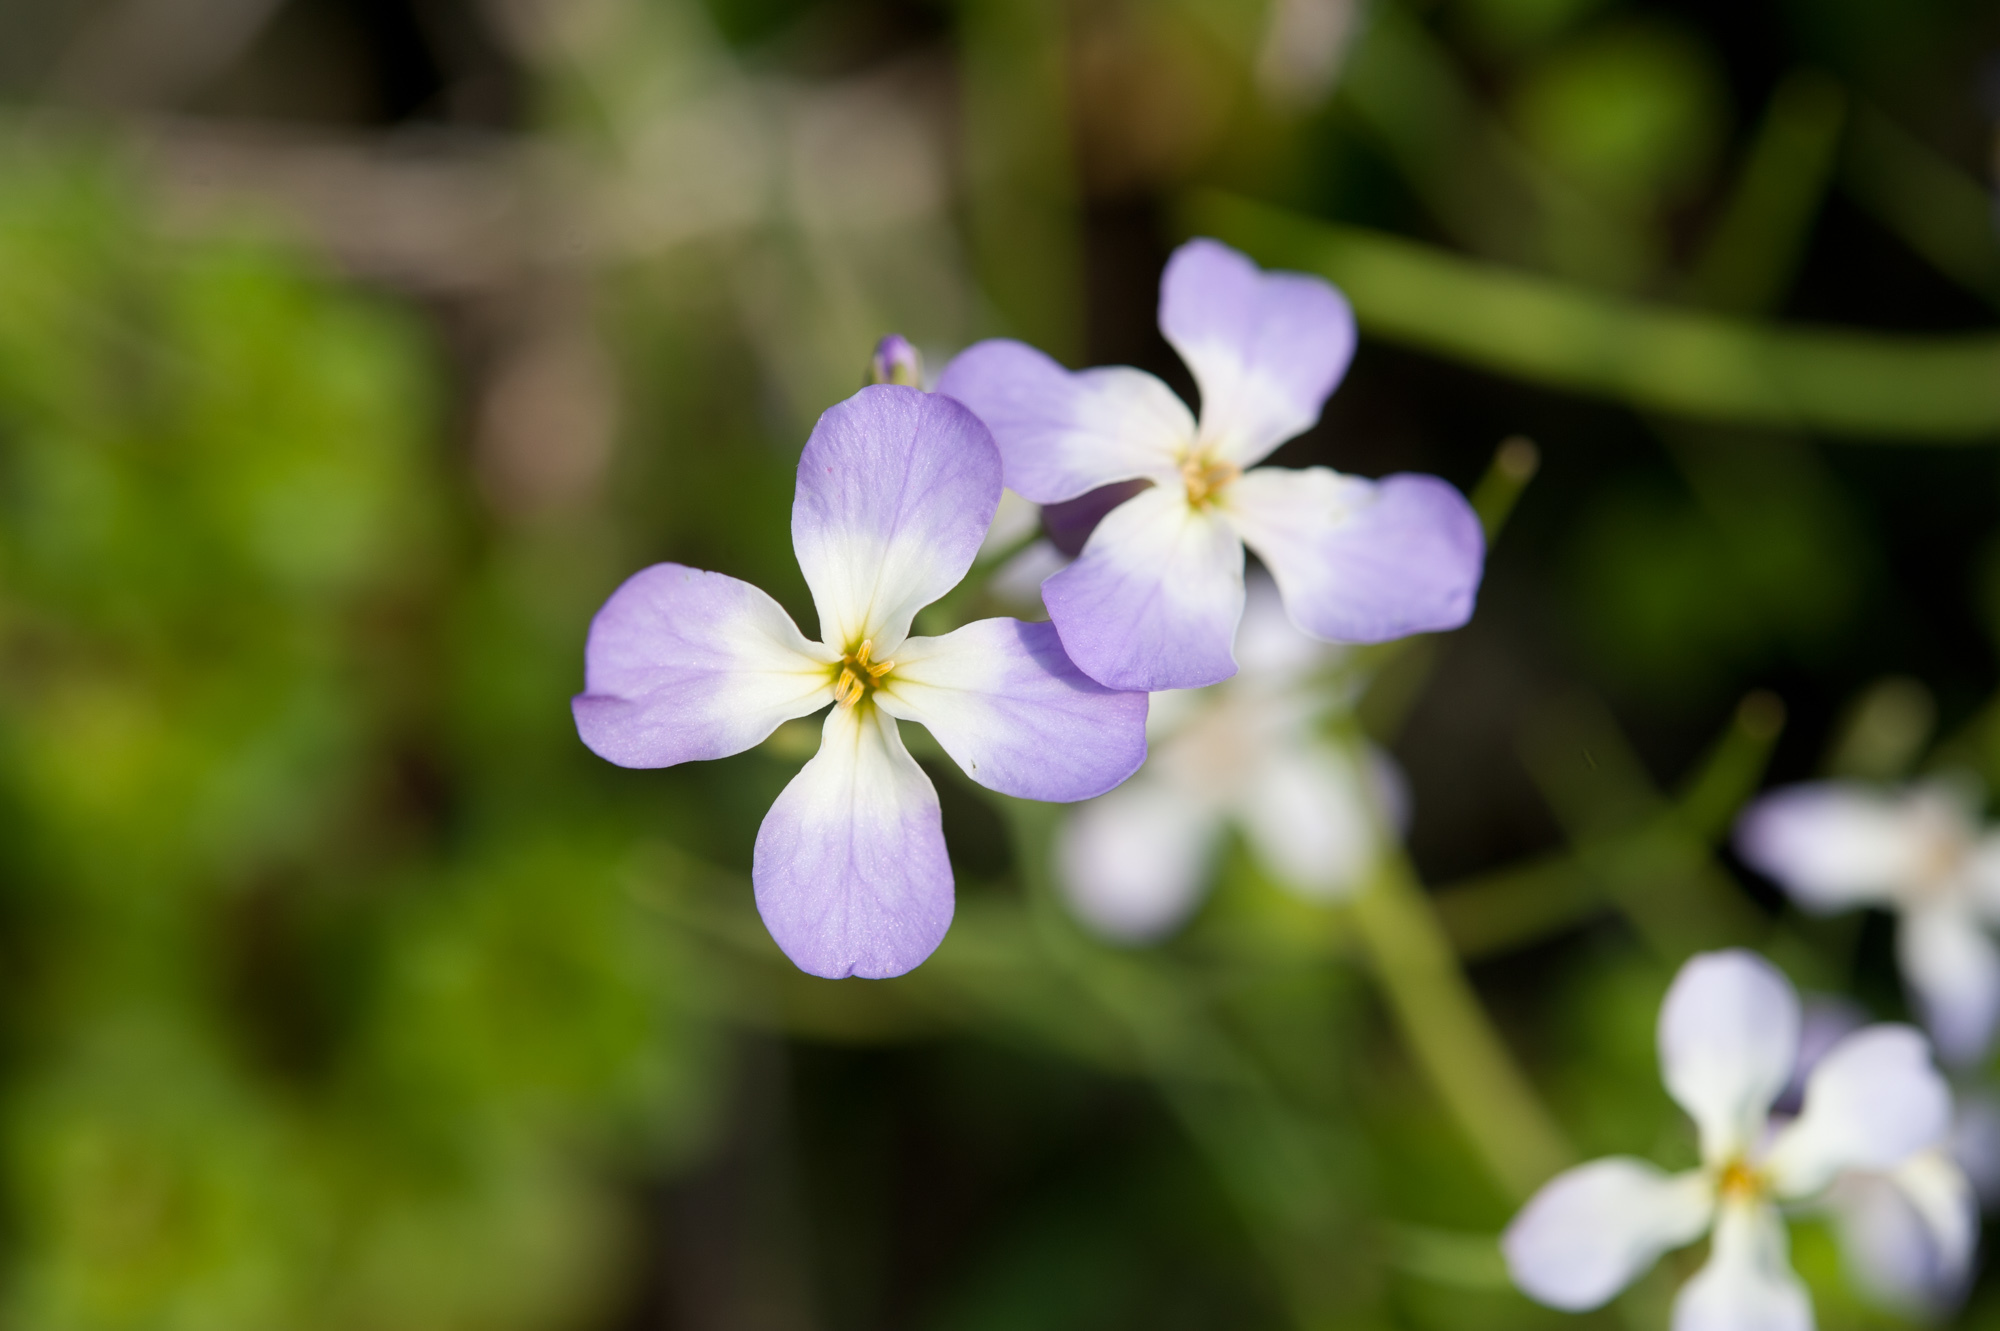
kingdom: Plantae
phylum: Tracheophyta
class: Magnoliopsida
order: Brassicales
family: Brassicaceae
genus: Raphanus
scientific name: Raphanus sativus
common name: Cultivated radish
